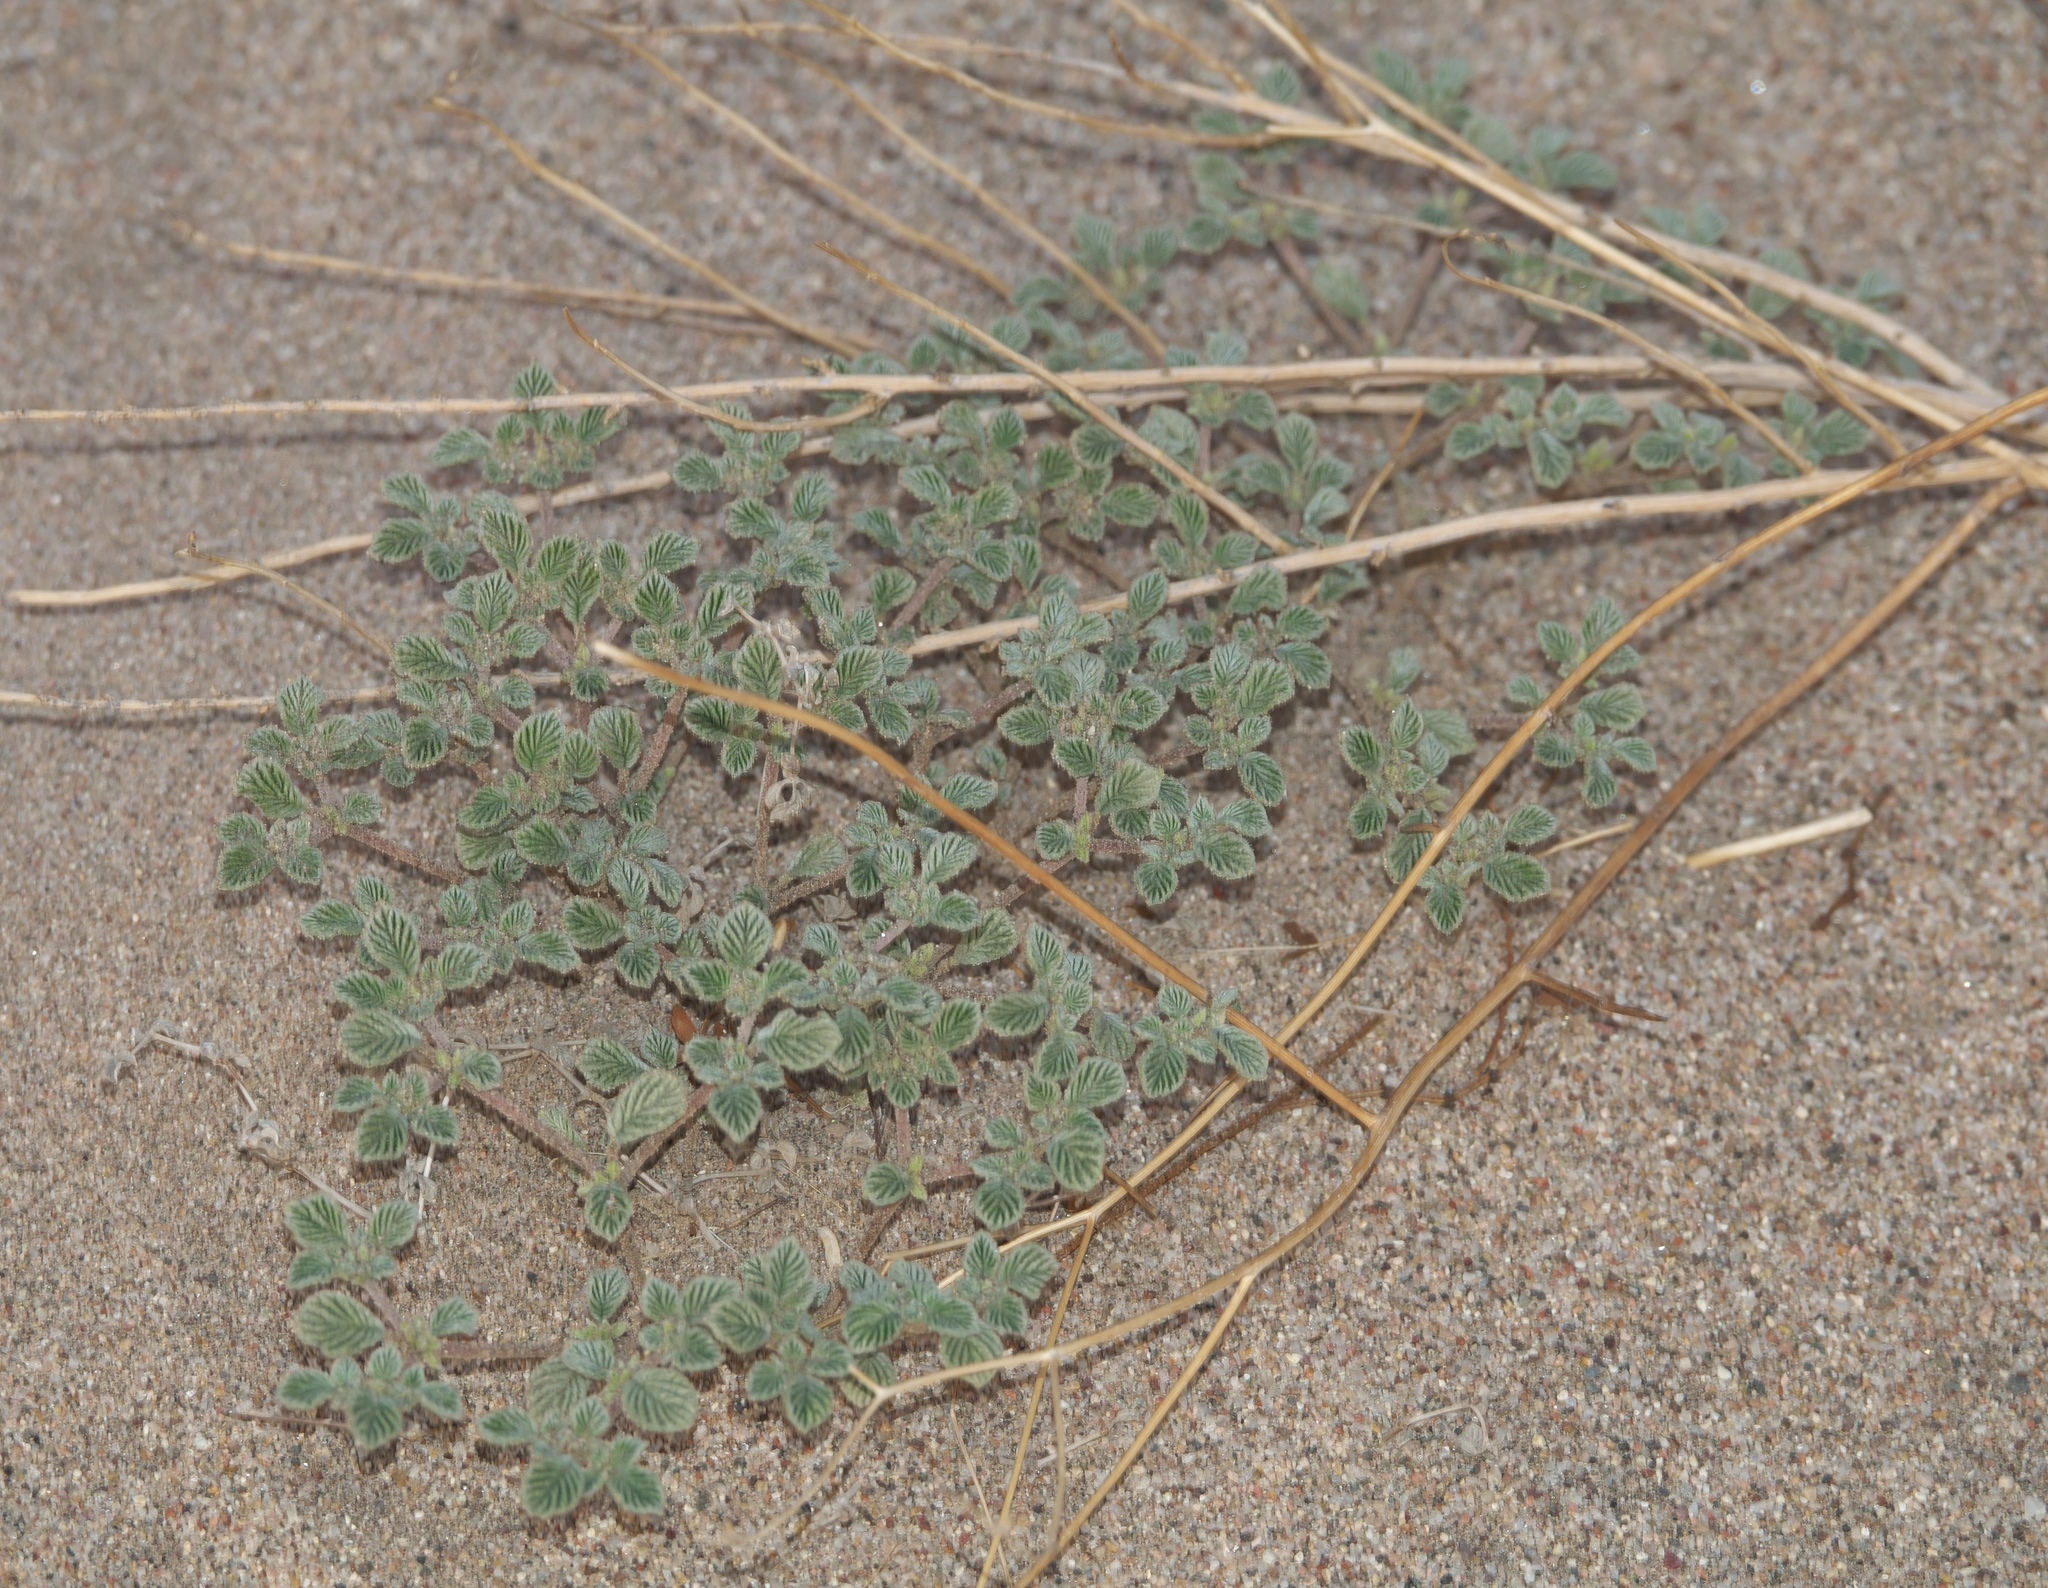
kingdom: Plantae
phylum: Tracheophyta
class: Magnoliopsida
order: Boraginales
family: Ehretiaceae
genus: Tiquilia
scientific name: Tiquilia plicata
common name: Fan-leaf tiquilia
